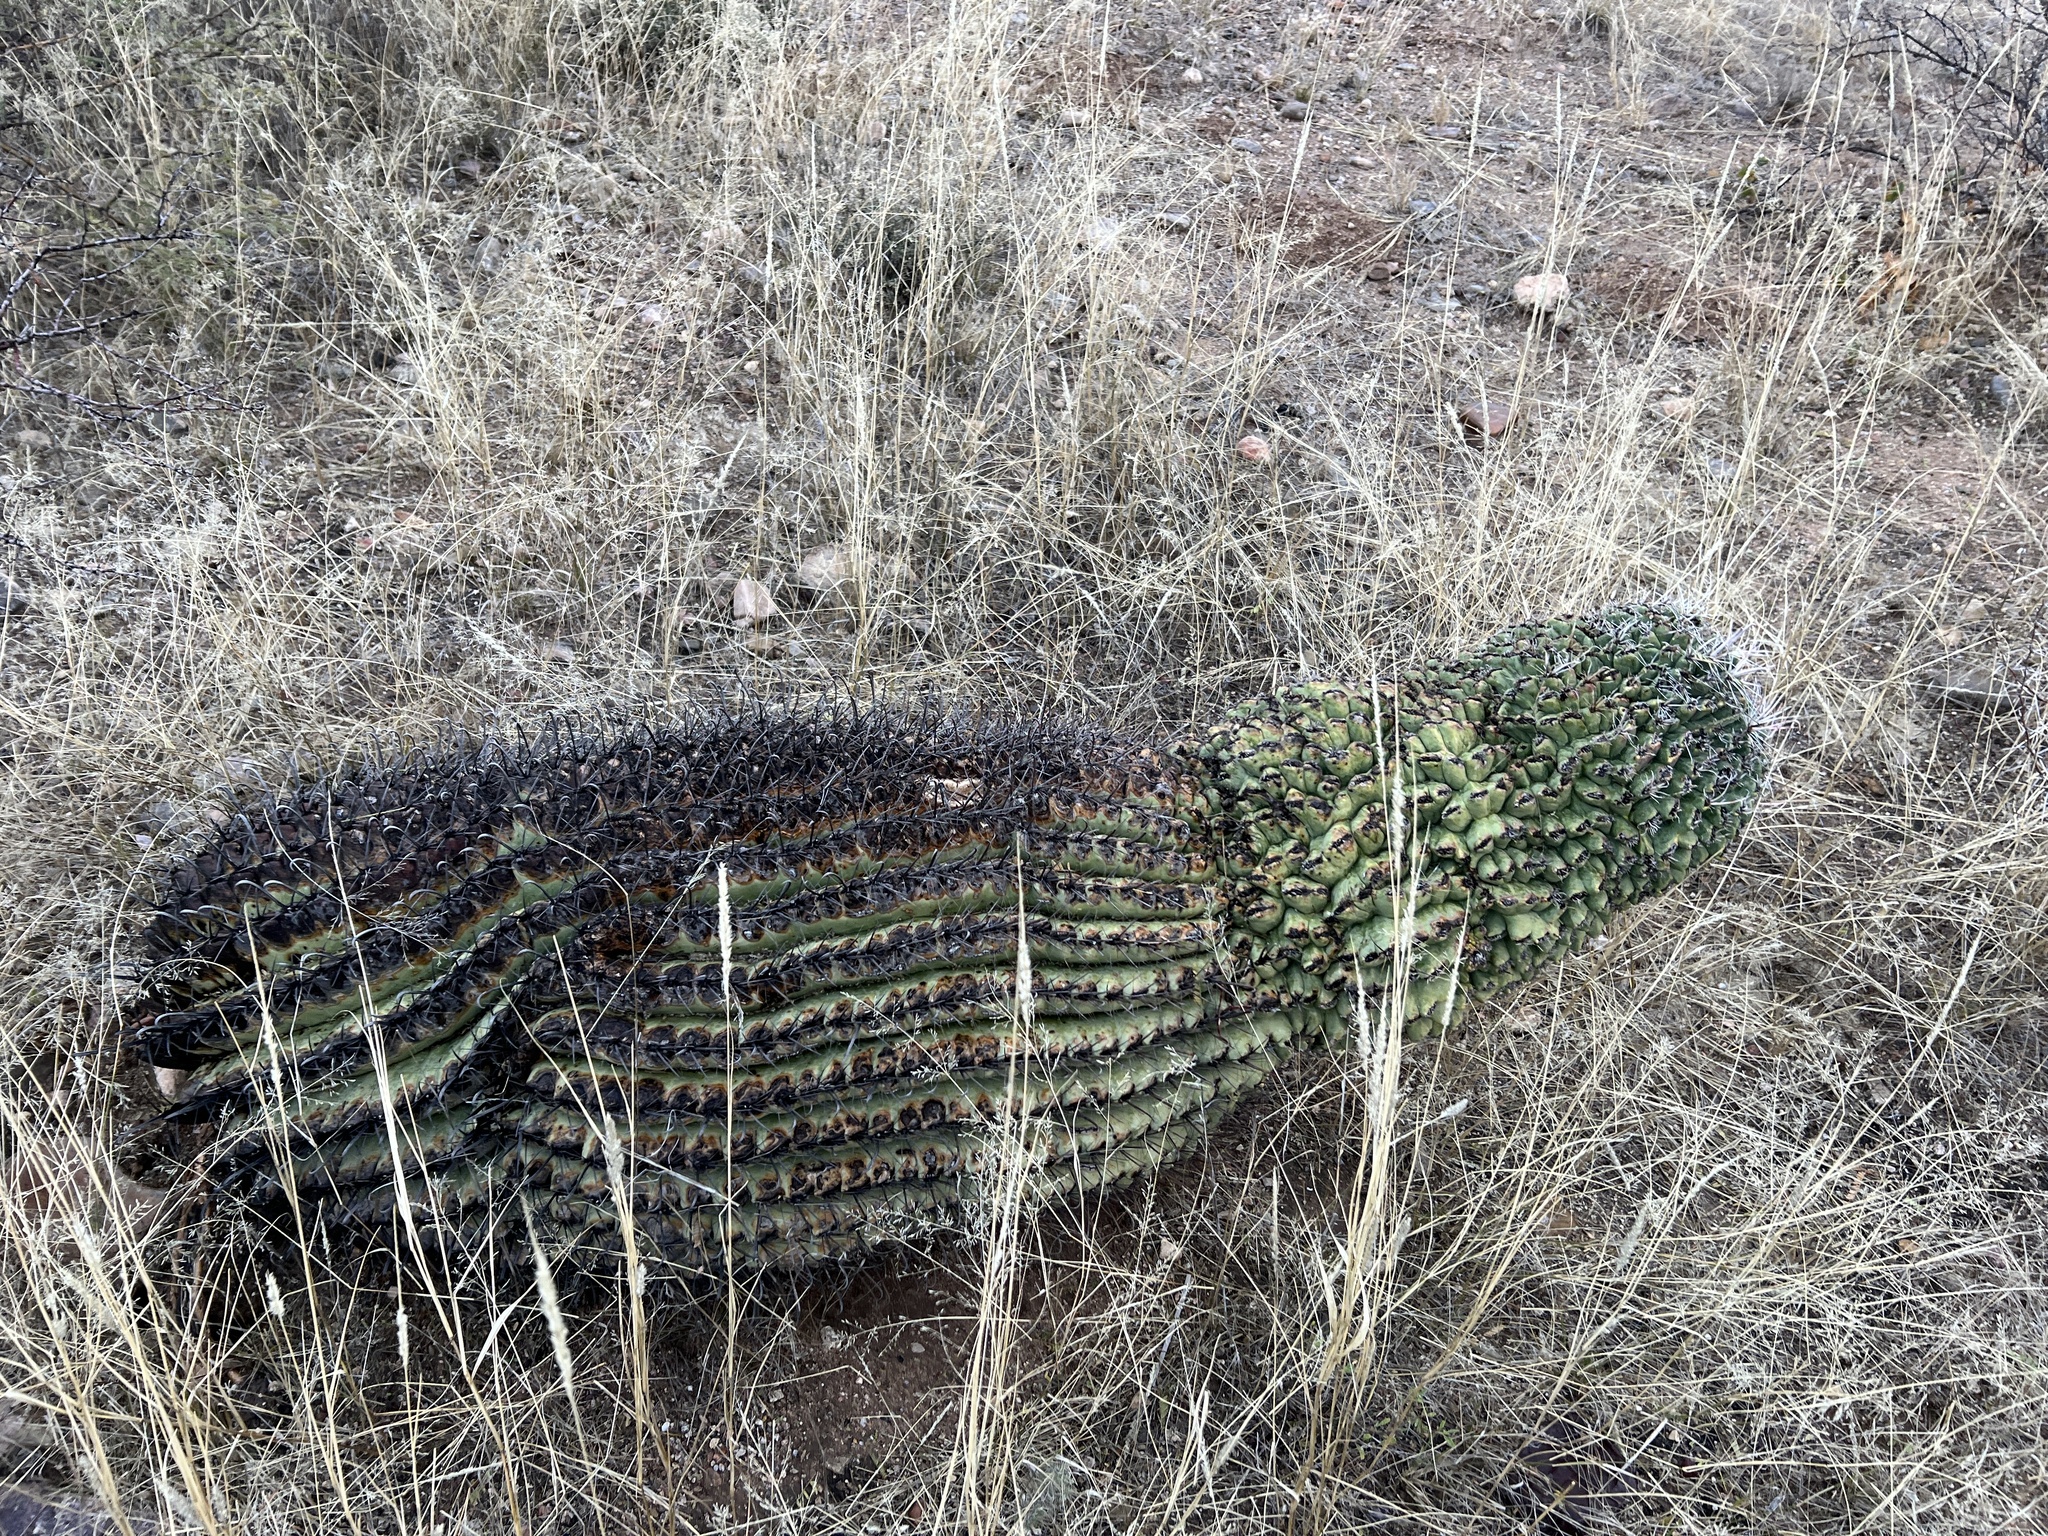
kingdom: Plantae
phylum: Tracheophyta
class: Magnoliopsida
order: Caryophyllales
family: Cactaceae
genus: Ferocactus
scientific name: Ferocactus wislizeni
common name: Candy barrel cactus
